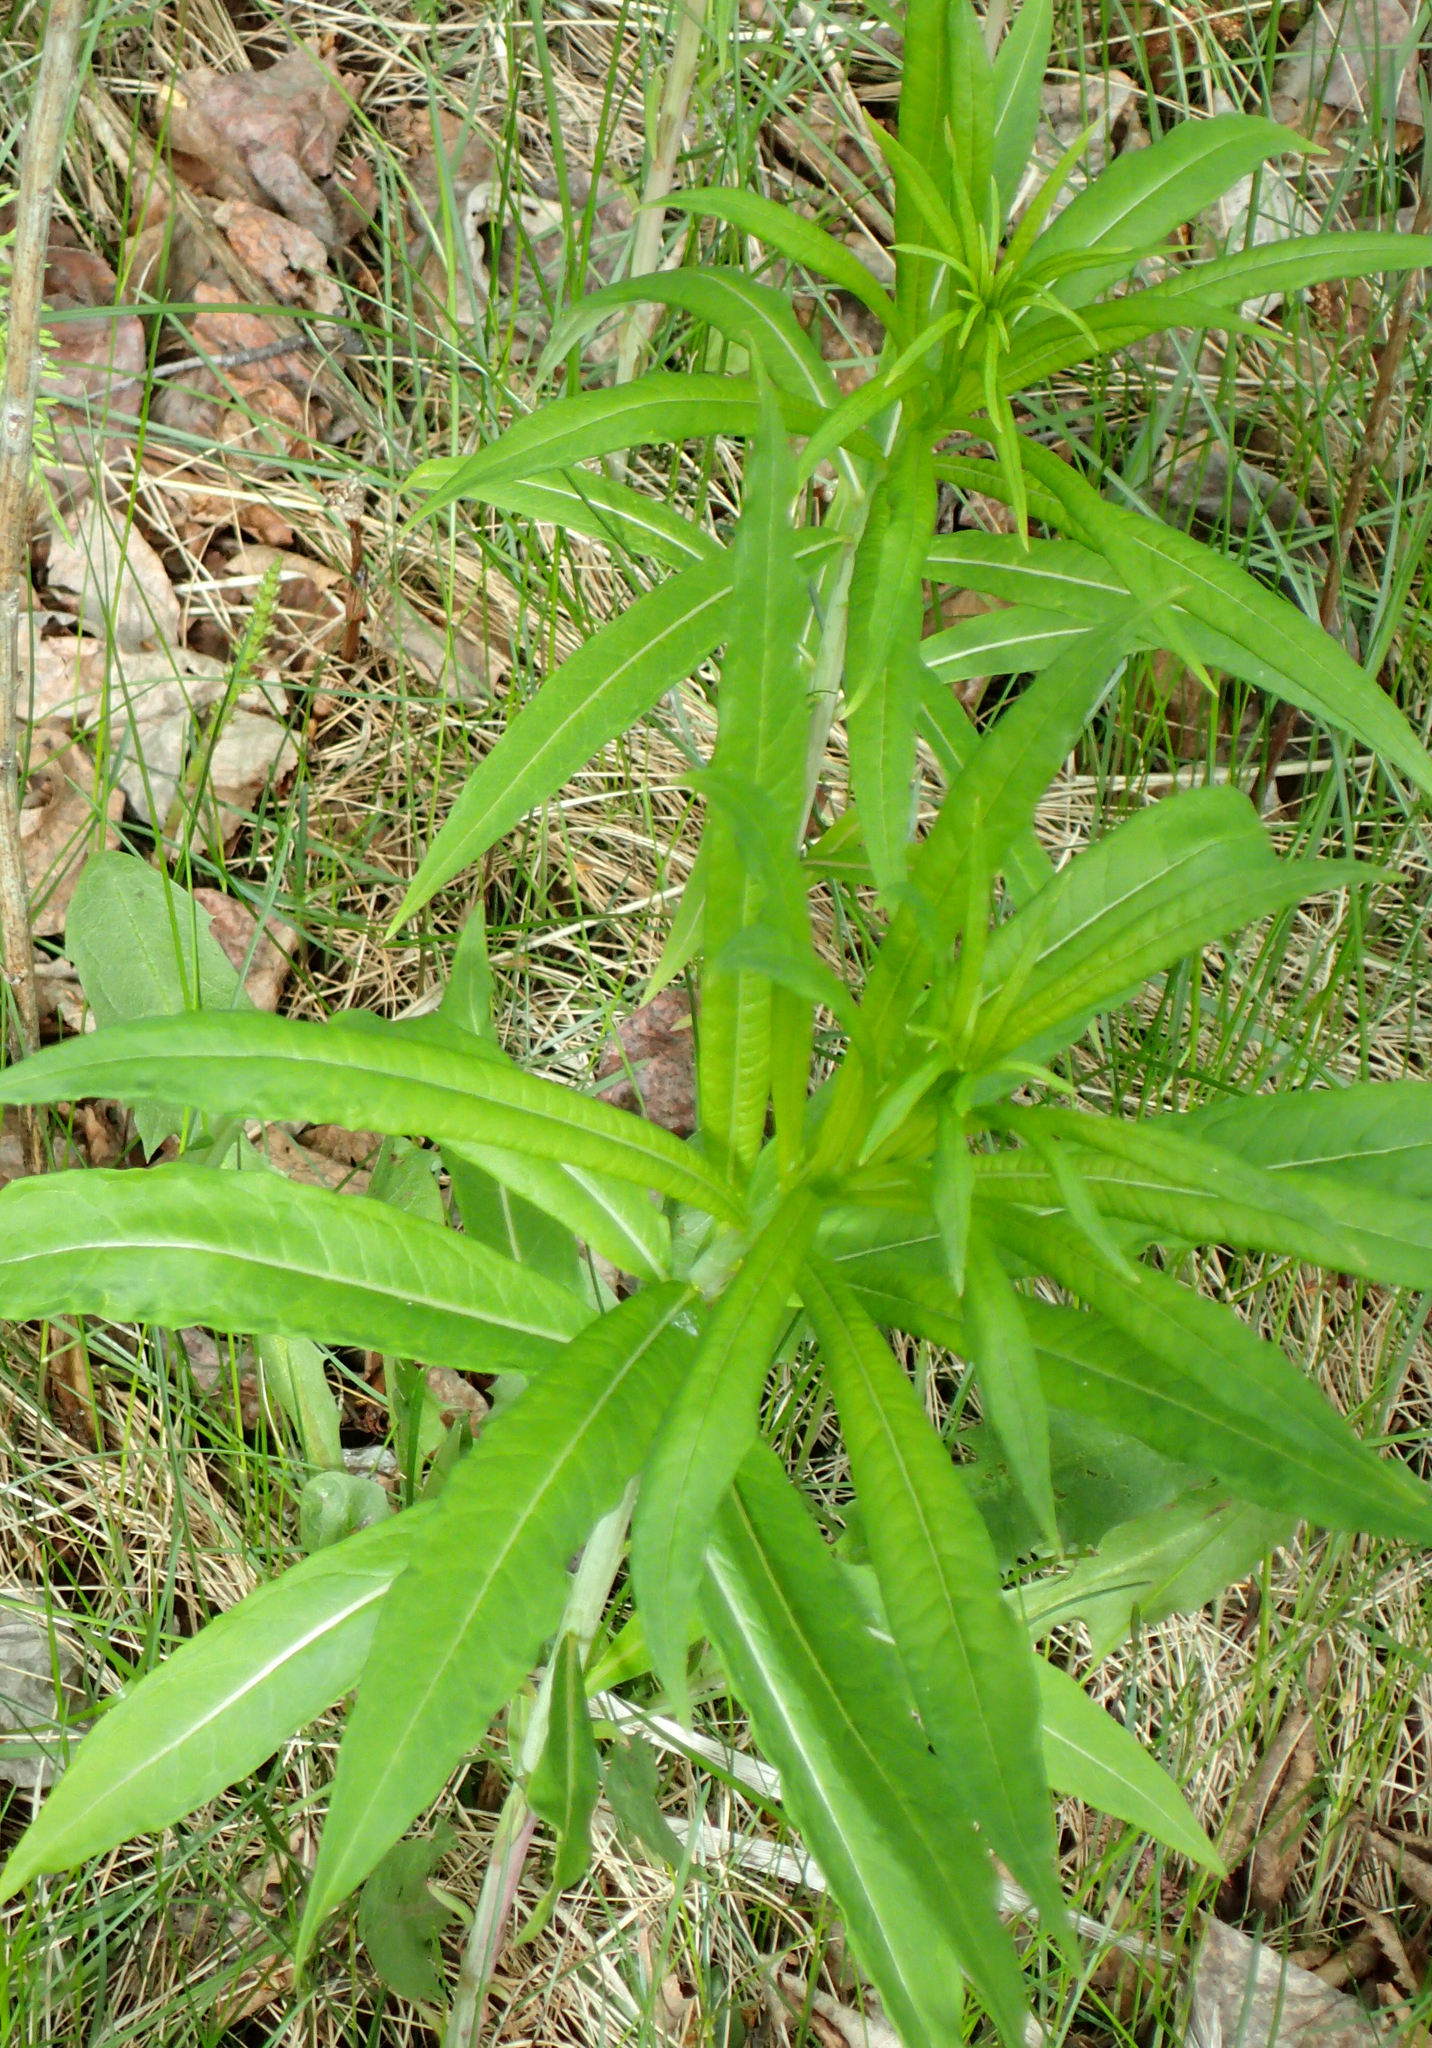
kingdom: Plantae
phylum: Tracheophyta
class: Magnoliopsida
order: Myrtales
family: Onagraceae
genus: Chamaenerion
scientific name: Chamaenerion angustifolium
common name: Fireweed
